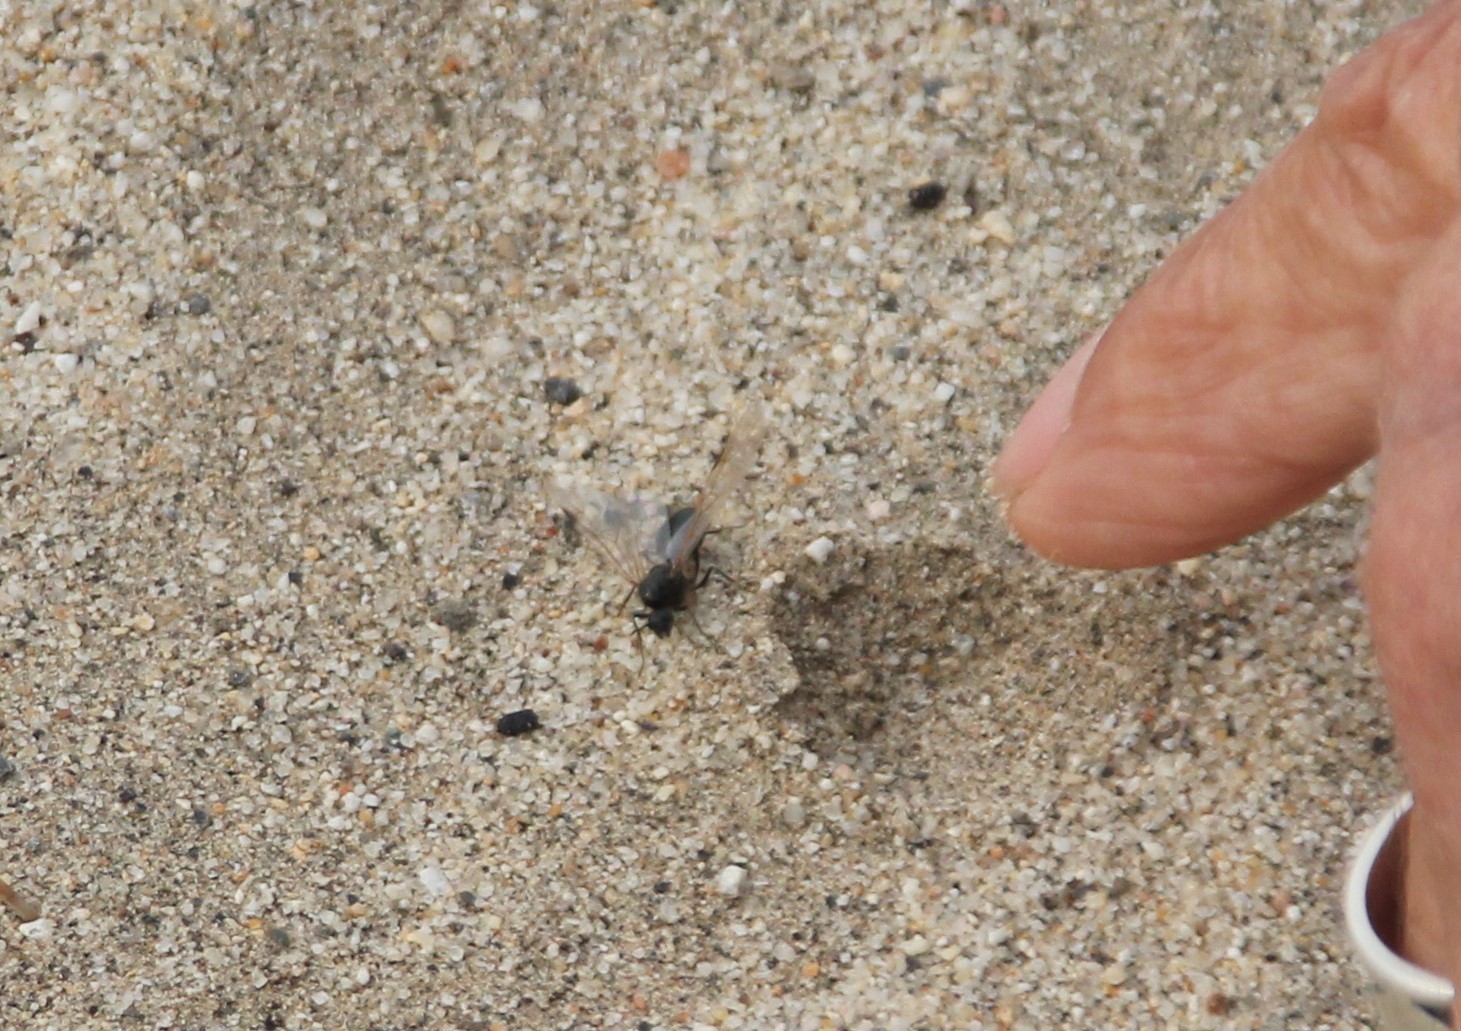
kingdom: Animalia
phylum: Arthropoda
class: Insecta
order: Hymenoptera
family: Formicidae
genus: Messor
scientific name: Messor pergandei
